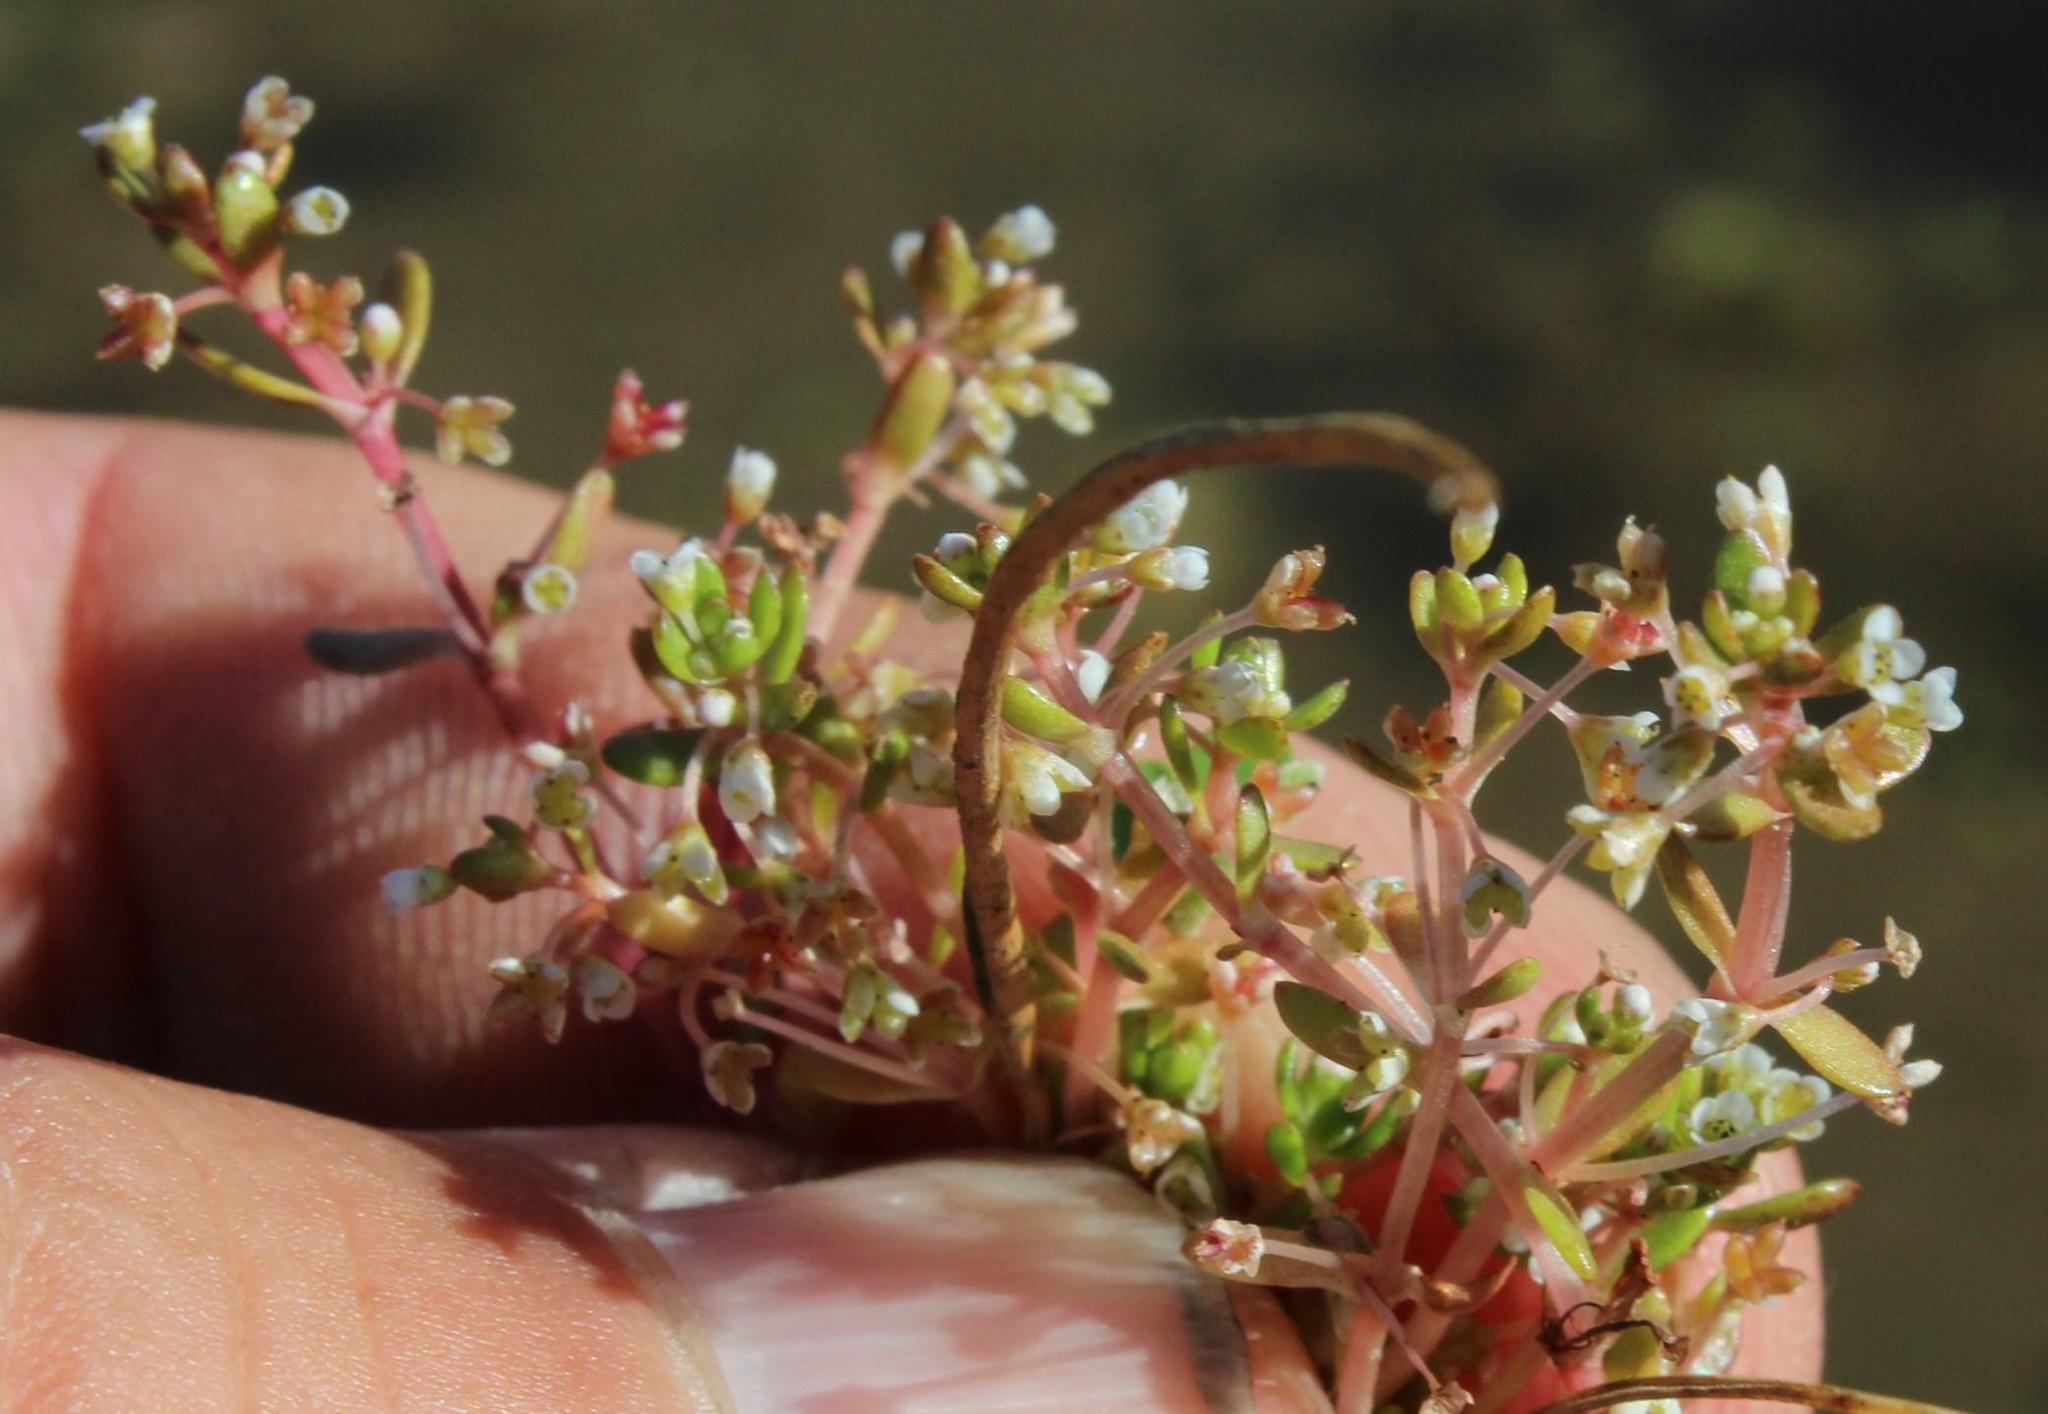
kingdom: Plantae
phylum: Tracheophyta
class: Magnoliopsida
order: Saxifragales
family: Crassulaceae
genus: Crassula
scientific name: Crassula natans
